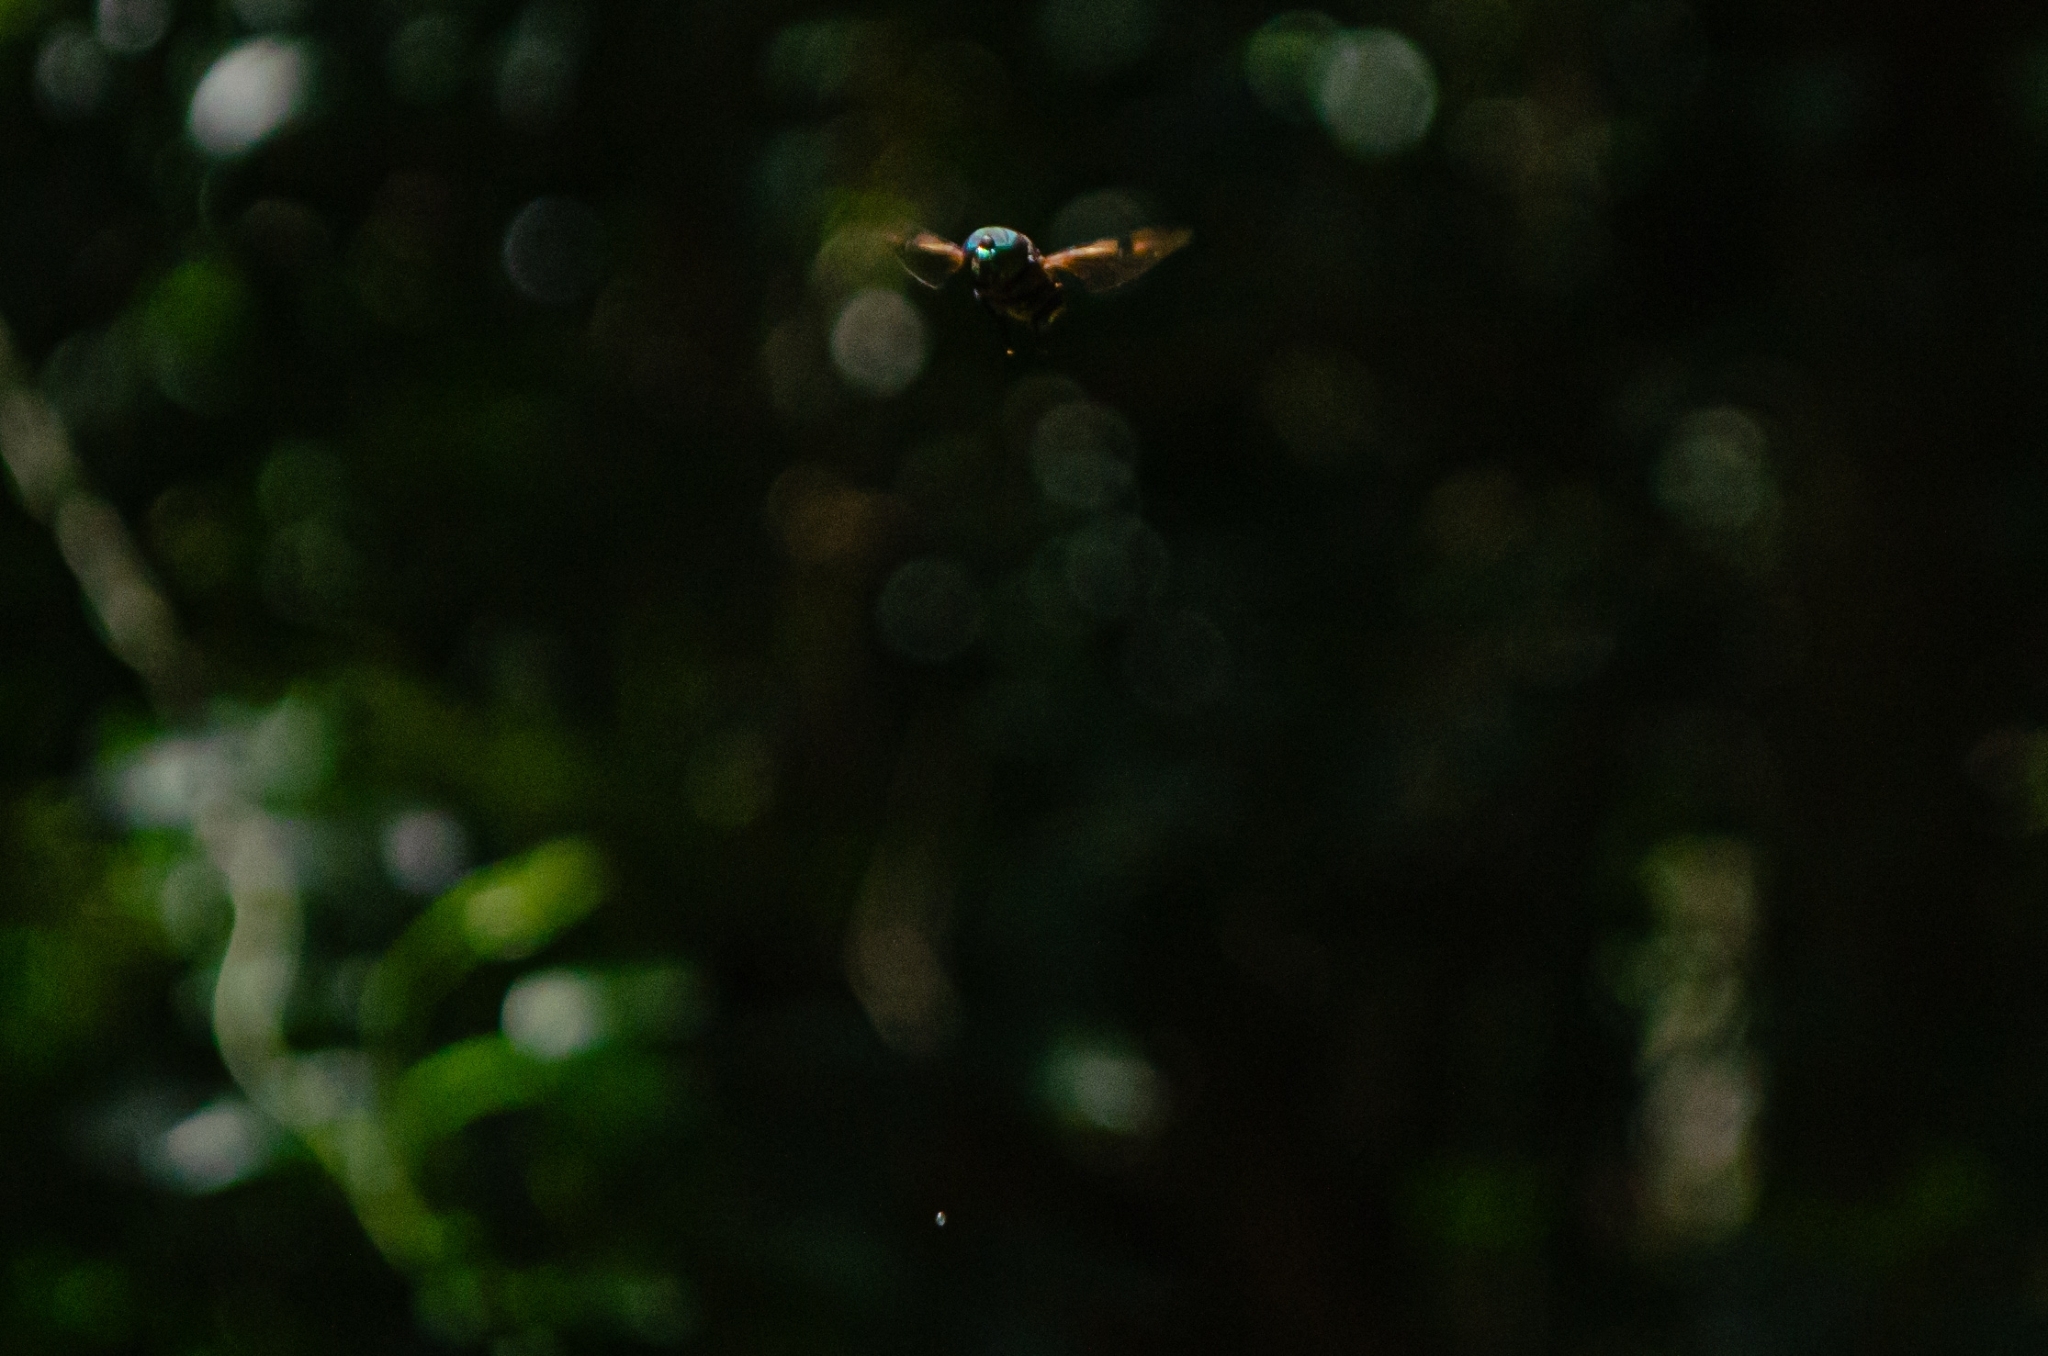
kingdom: Animalia
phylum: Arthropoda
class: Insecta
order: Diptera
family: Syrphidae
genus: Ornidia
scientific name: Ornidia obesa
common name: Syrphid fly
